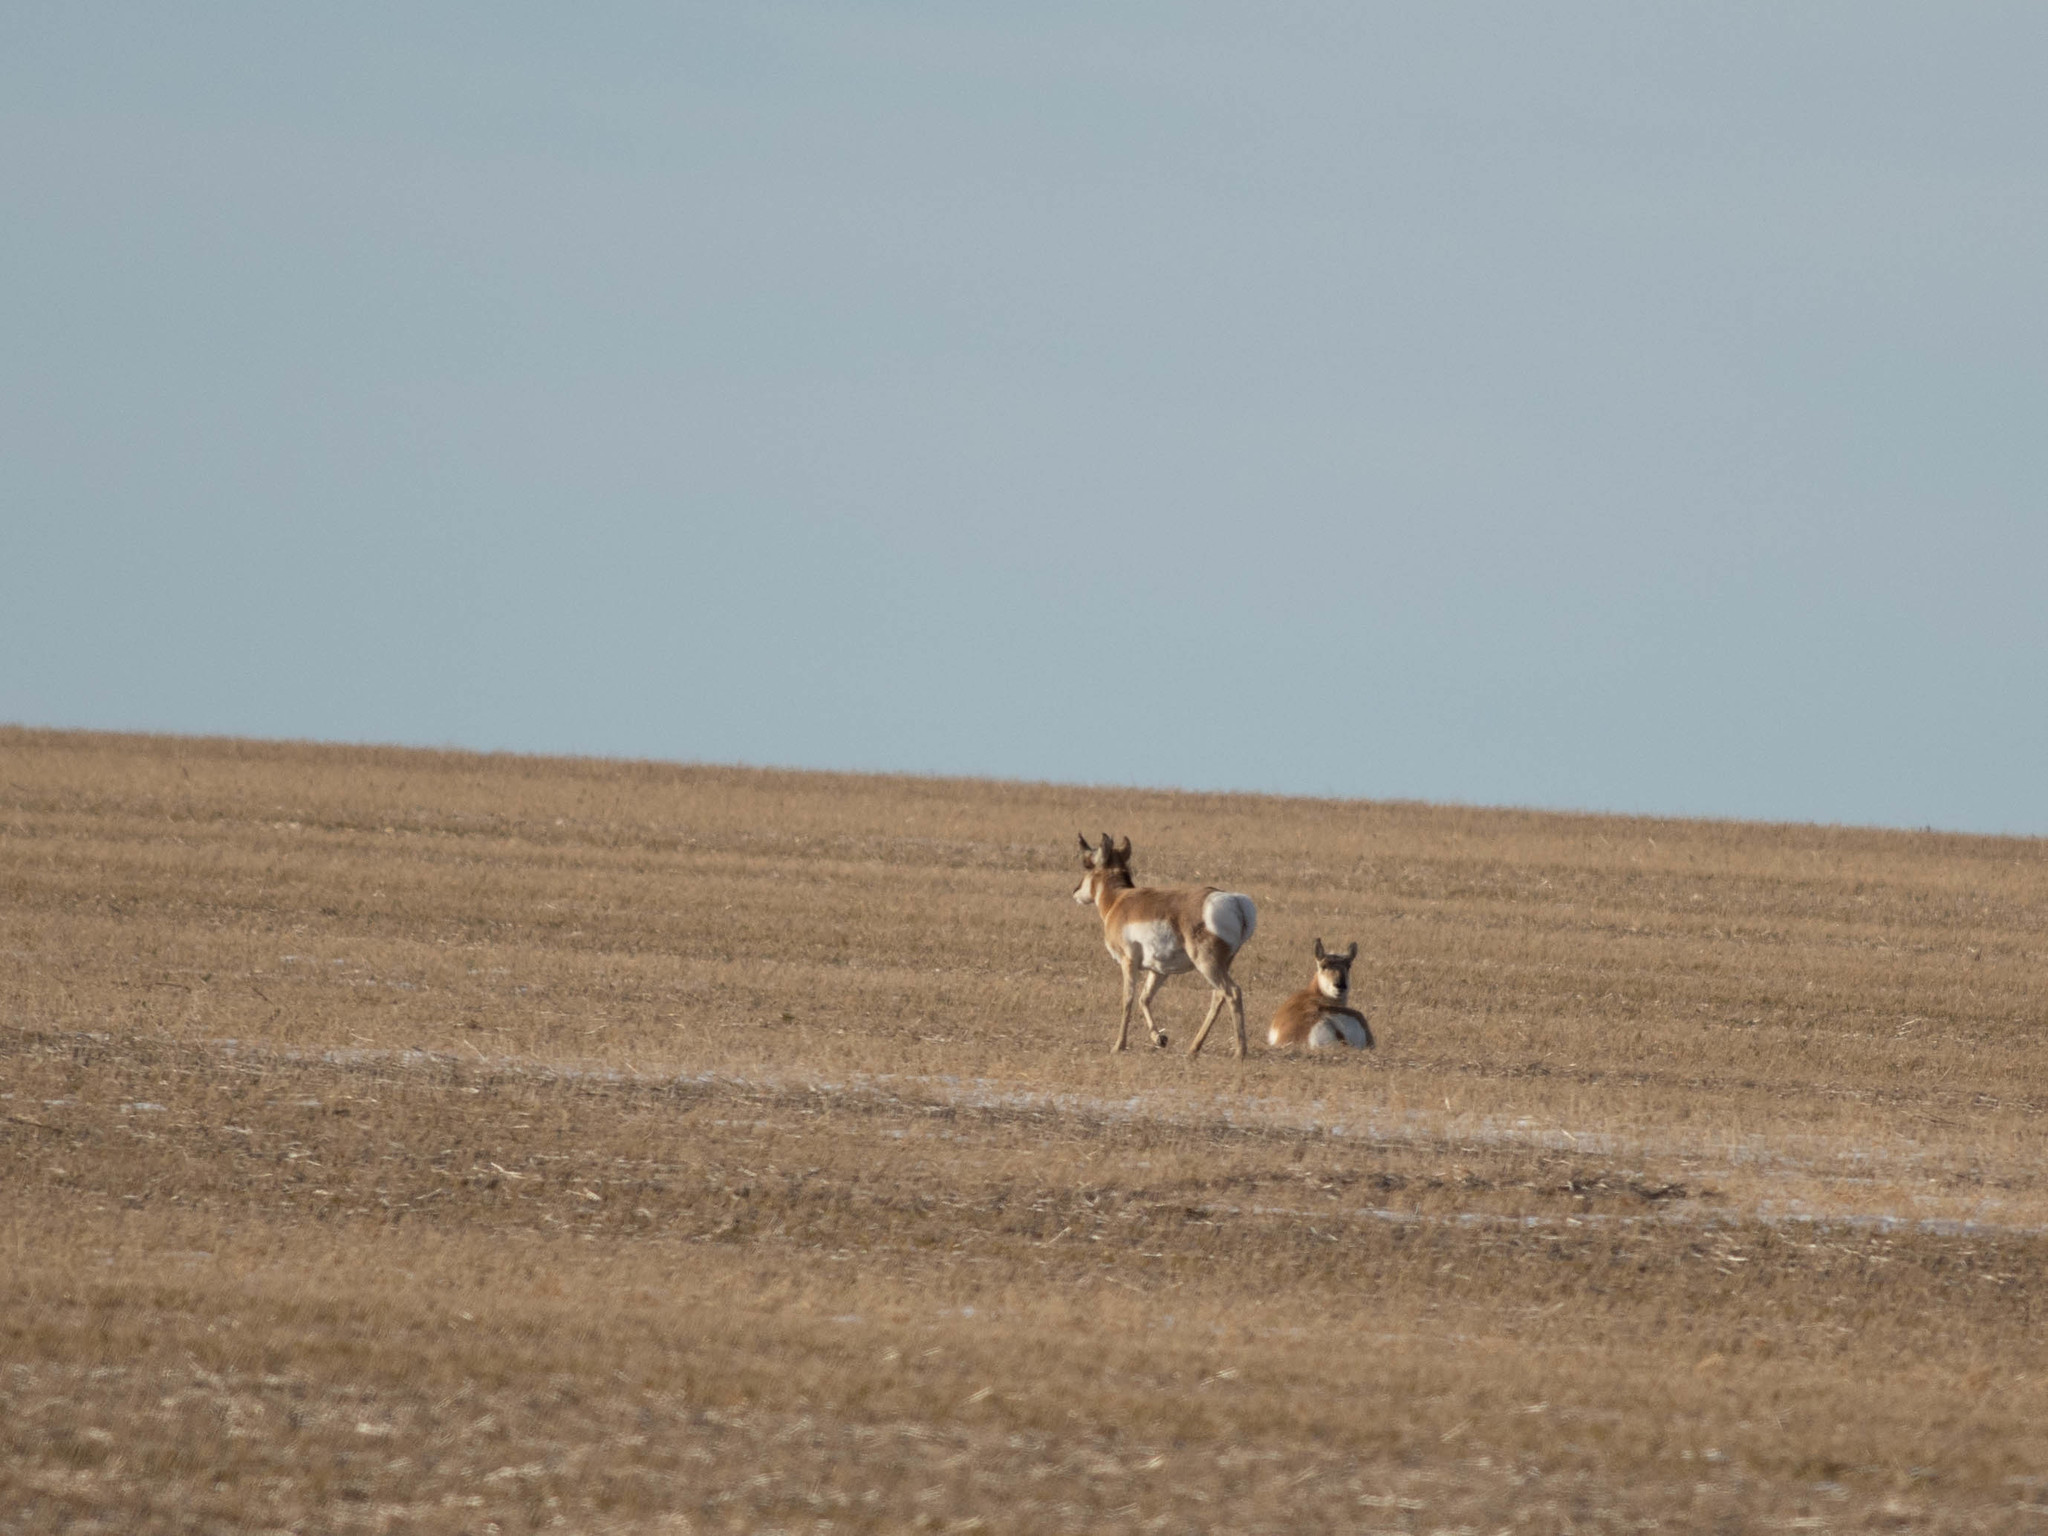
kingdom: Animalia
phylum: Chordata
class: Mammalia
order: Artiodactyla
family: Antilocapridae
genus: Antilocapra
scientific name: Antilocapra americana
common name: Pronghorn
